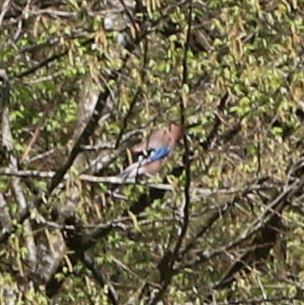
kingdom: Animalia
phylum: Chordata
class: Aves
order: Passeriformes
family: Corvidae
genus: Garrulus
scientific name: Garrulus glandarius
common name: Eurasian jay
